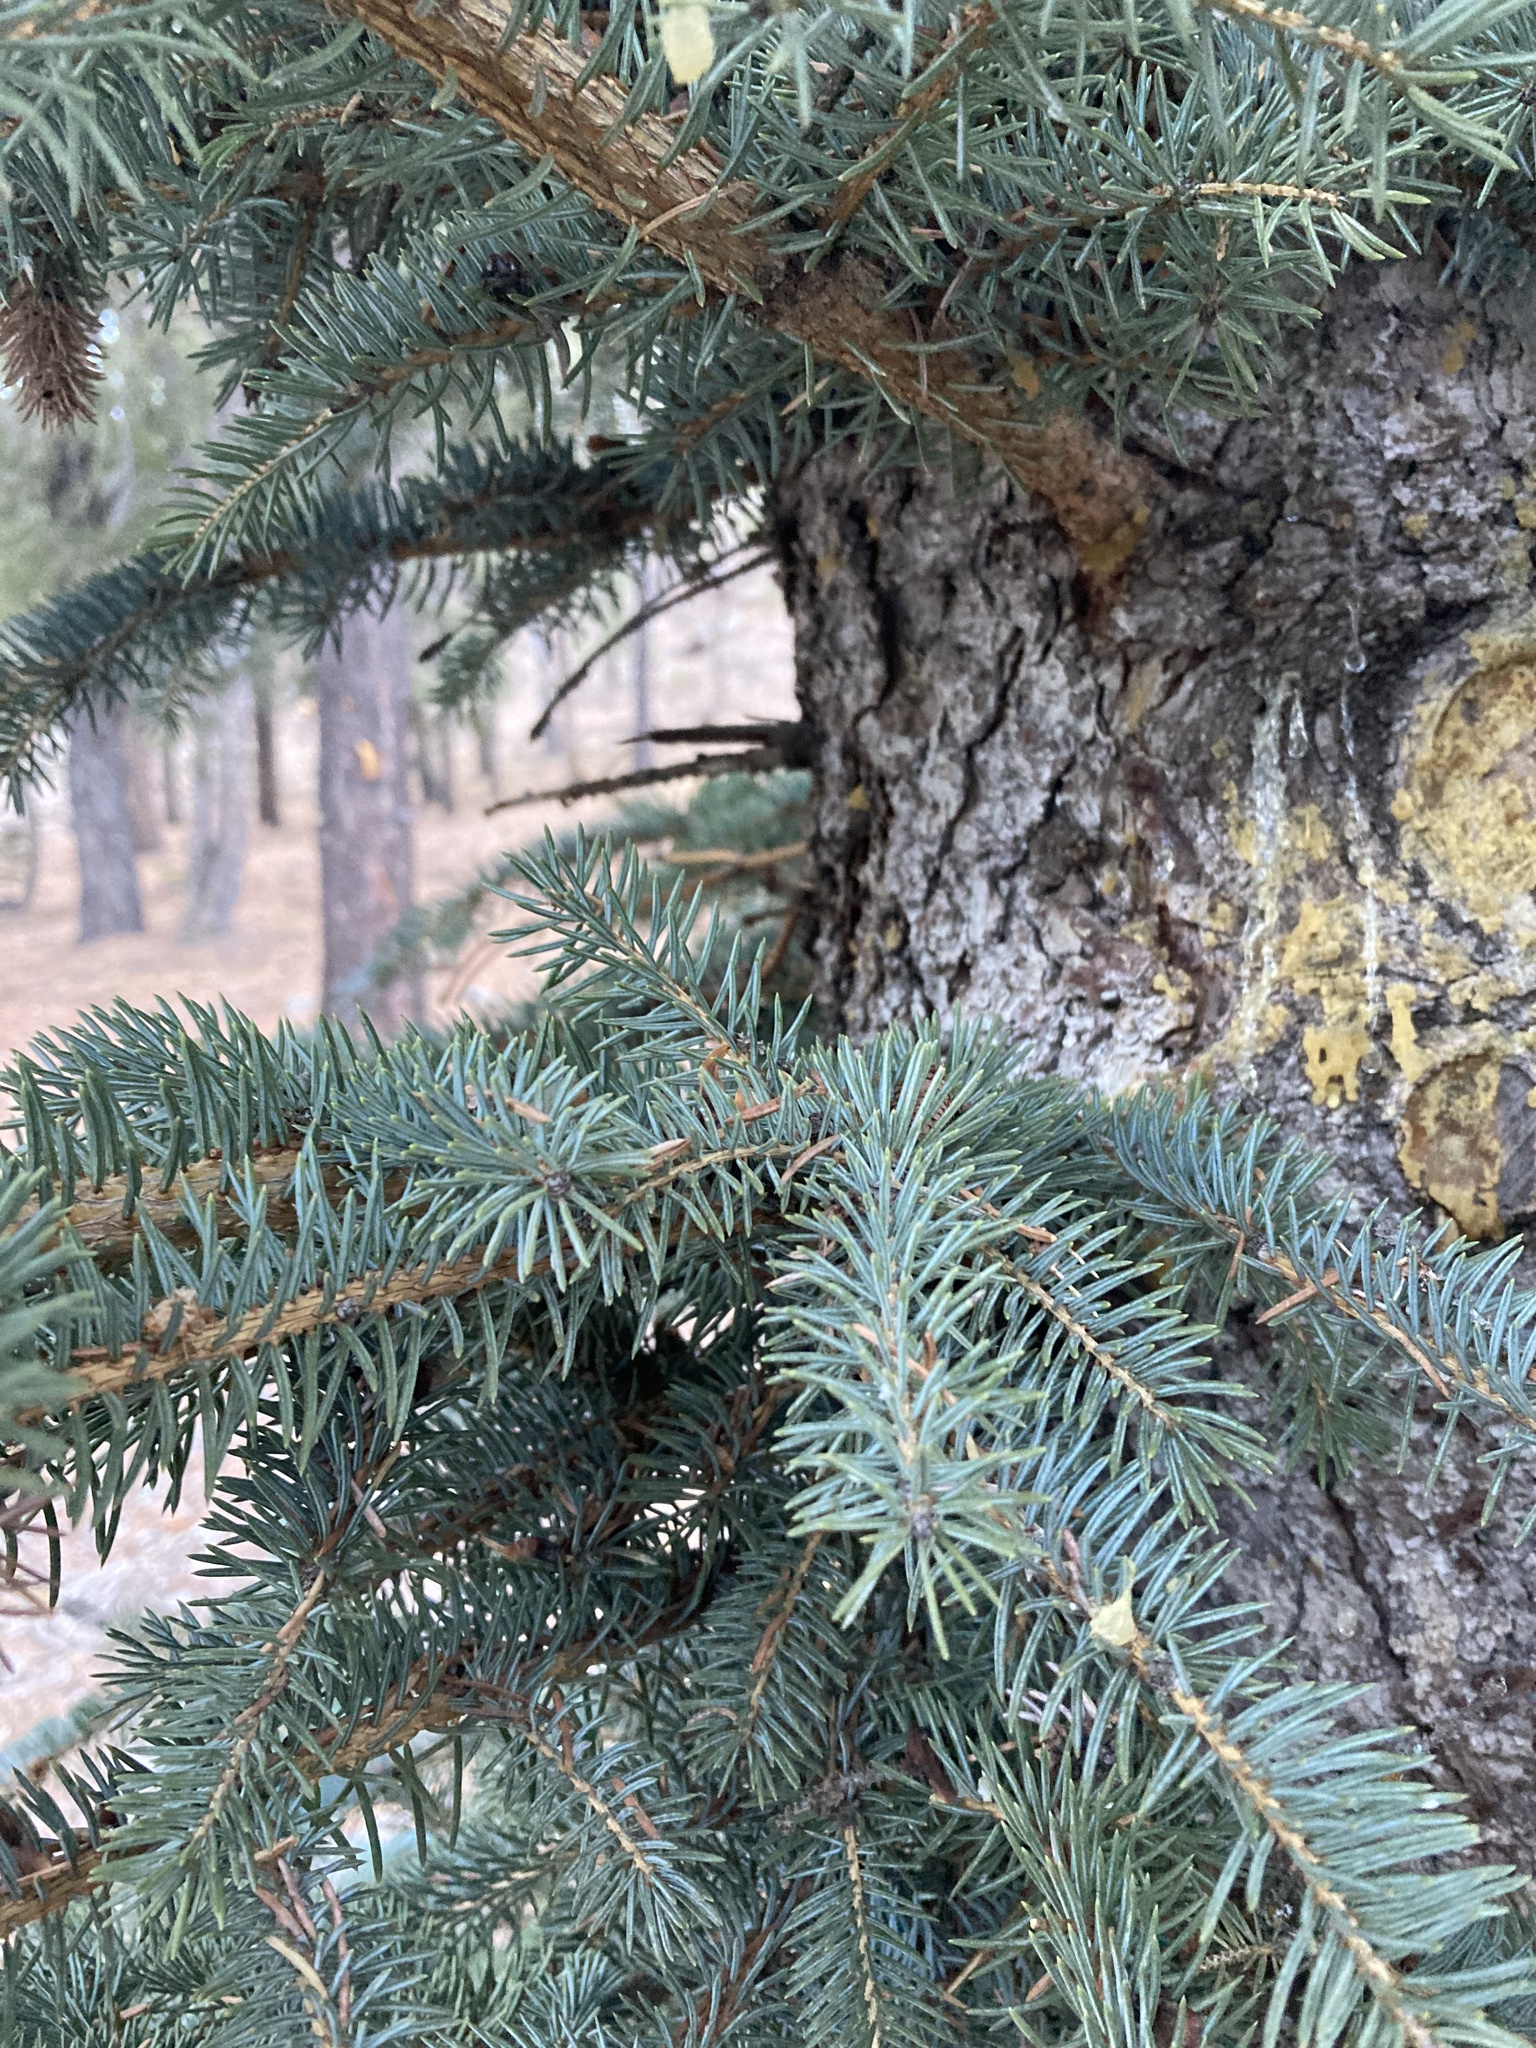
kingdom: Plantae
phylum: Tracheophyta
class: Pinopsida
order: Pinales
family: Pinaceae
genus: Picea
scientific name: Picea pungens
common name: Colorado spruce
